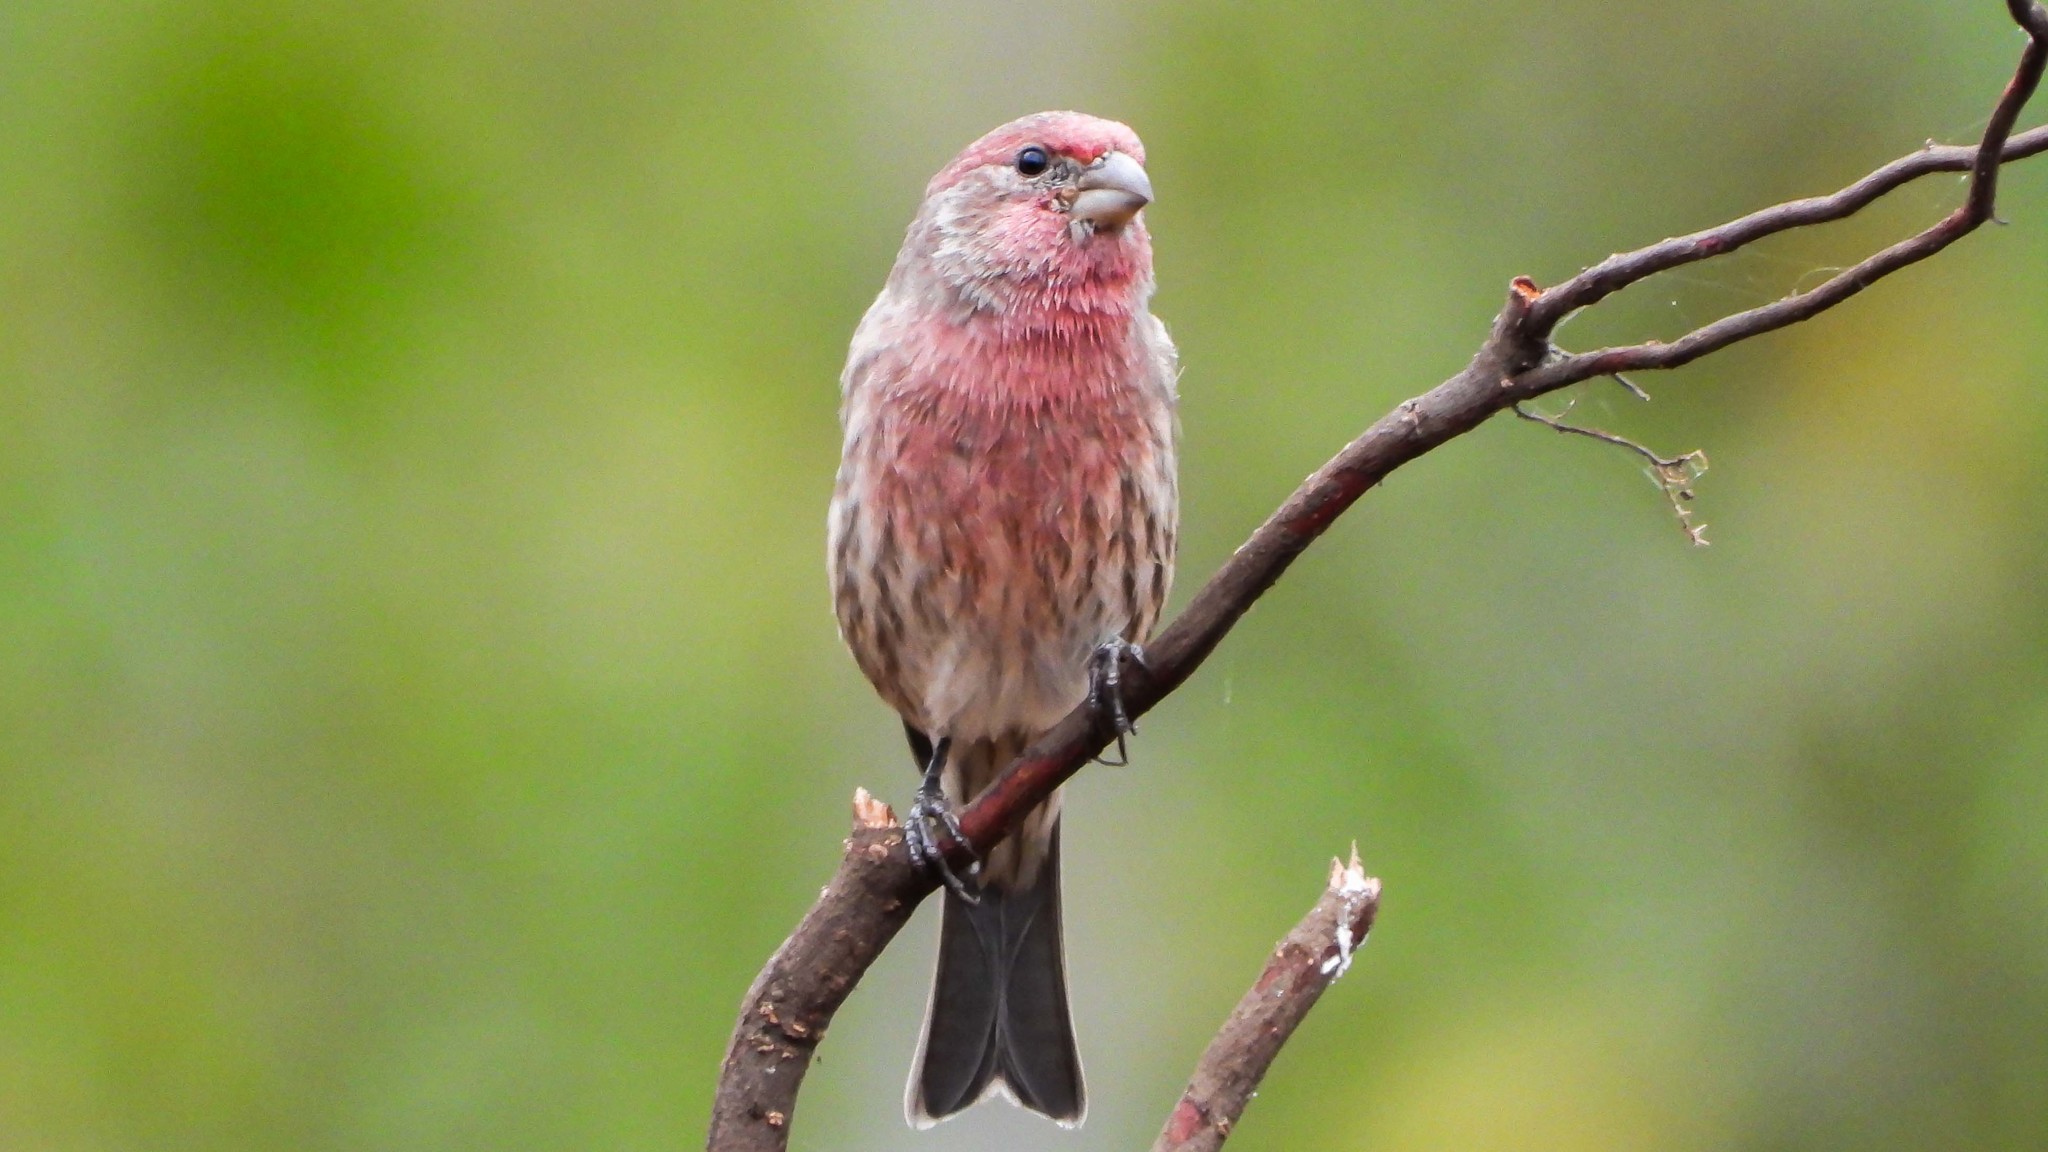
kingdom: Animalia
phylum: Chordata
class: Aves
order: Passeriformes
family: Fringillidae
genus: Haemorhous
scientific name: Haemorhous mexicanus
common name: House finch
